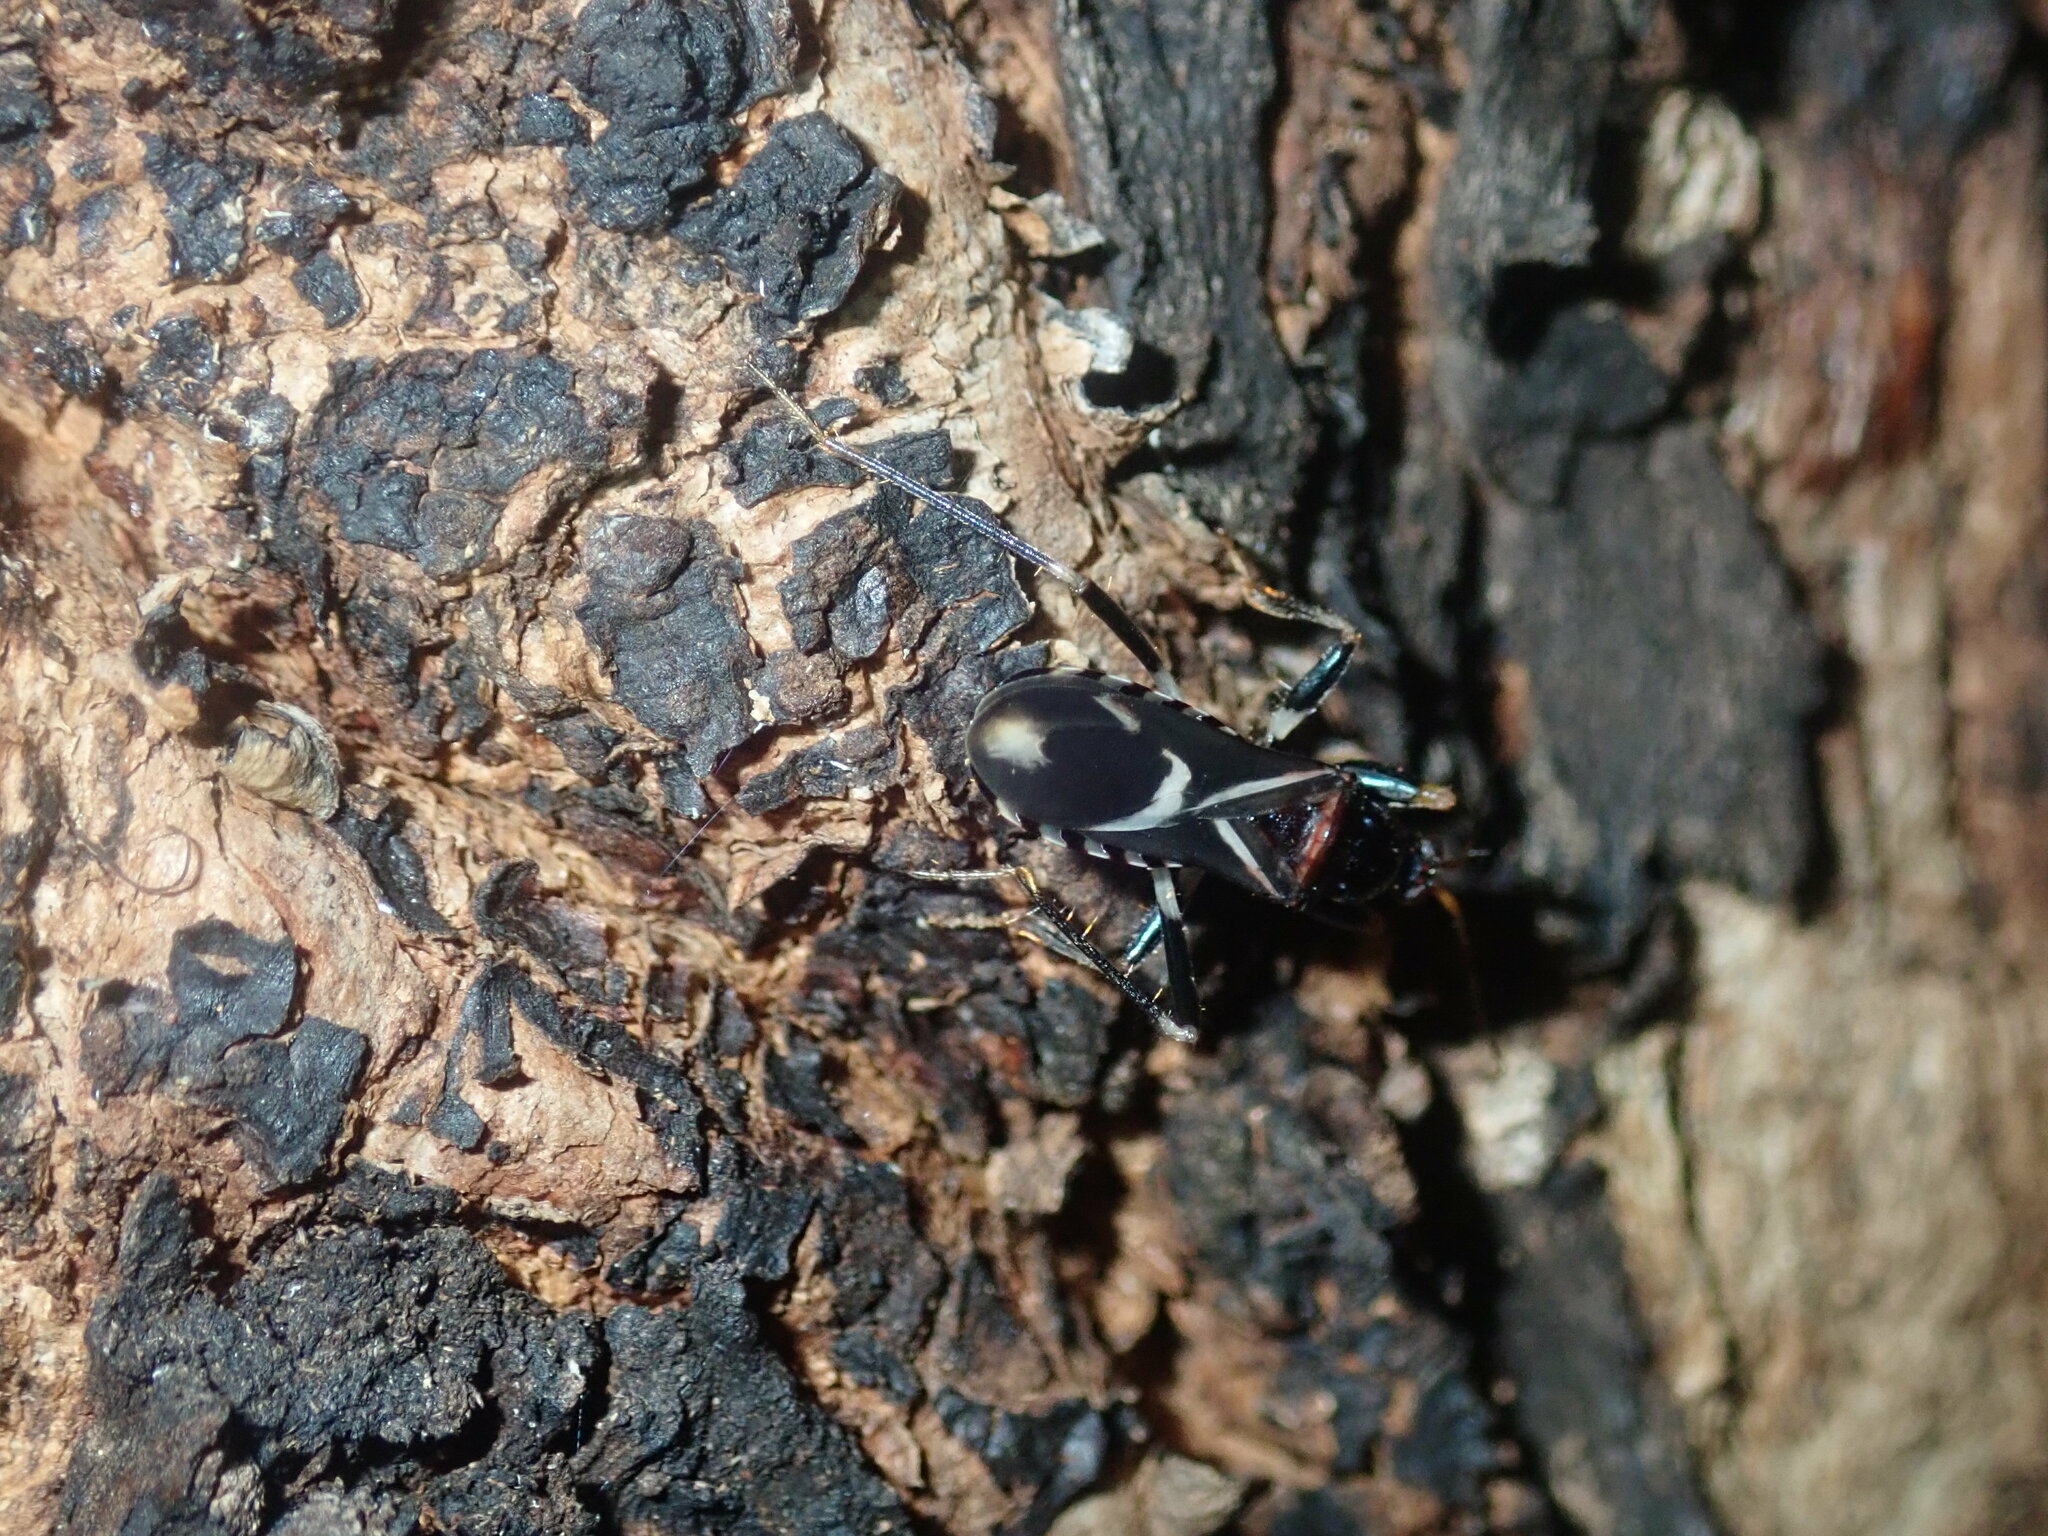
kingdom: Animalia
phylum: Arthropoda
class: Insecta
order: Hemiptera
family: Reduviidae
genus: Ectomocoris
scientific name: Ectomocoris decoratus
